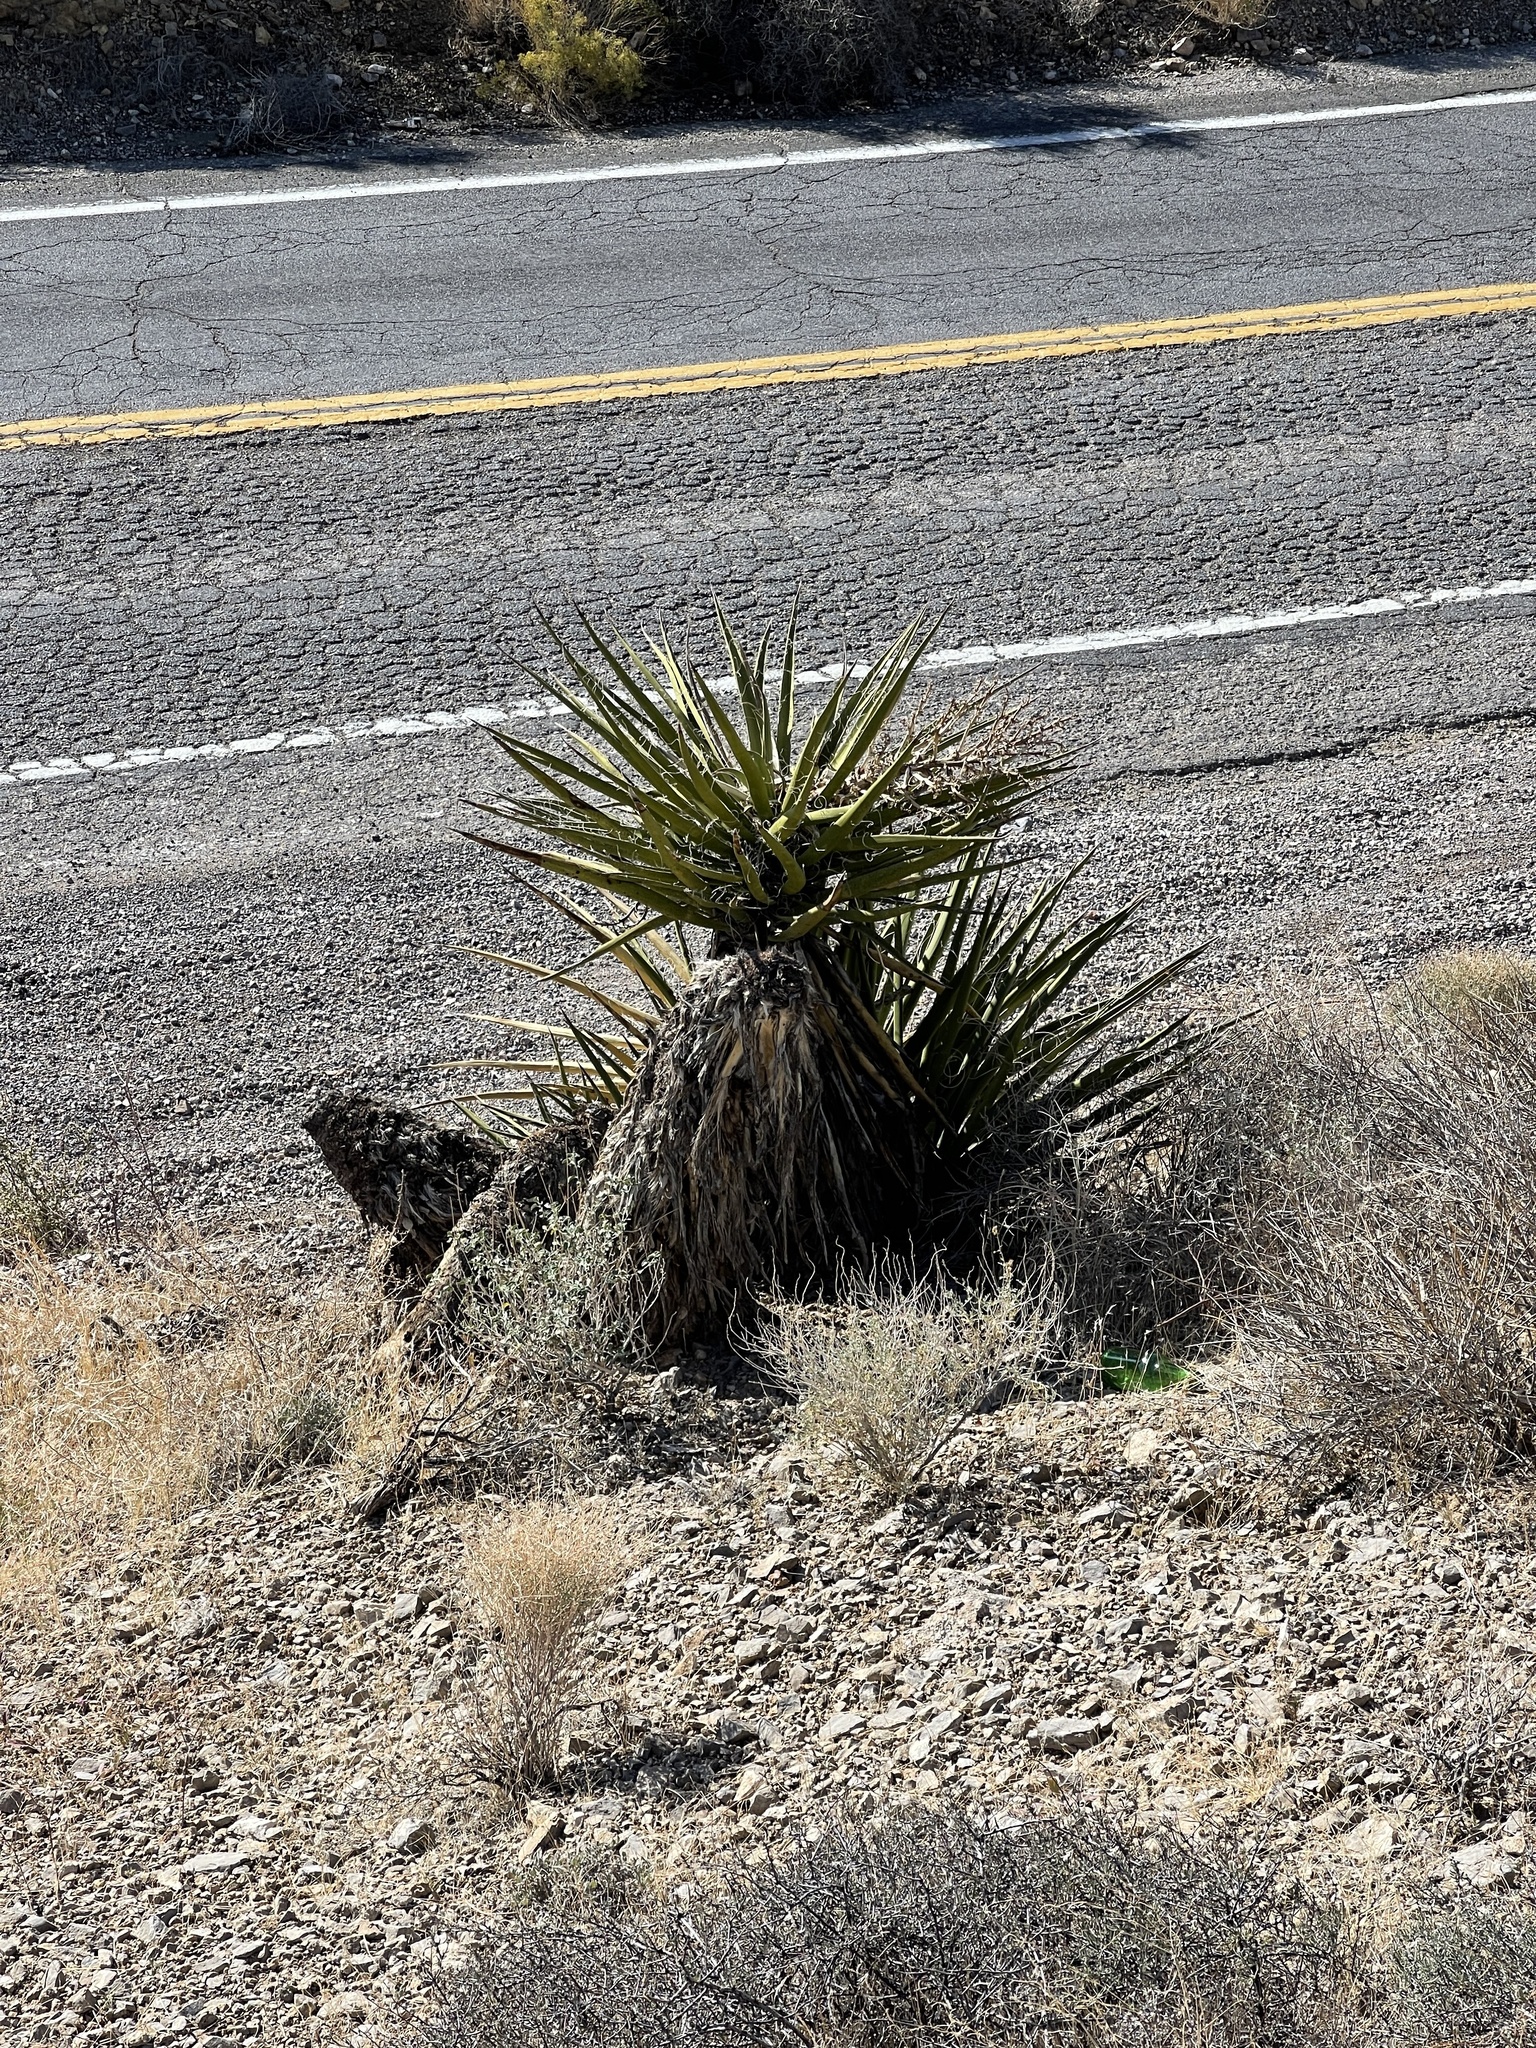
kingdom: Plantae
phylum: Tracheophyta
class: Liliopsida
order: Asparagales
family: Asparagaceae
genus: Yucca
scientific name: Yucca schidigera
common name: Mojave yucca
